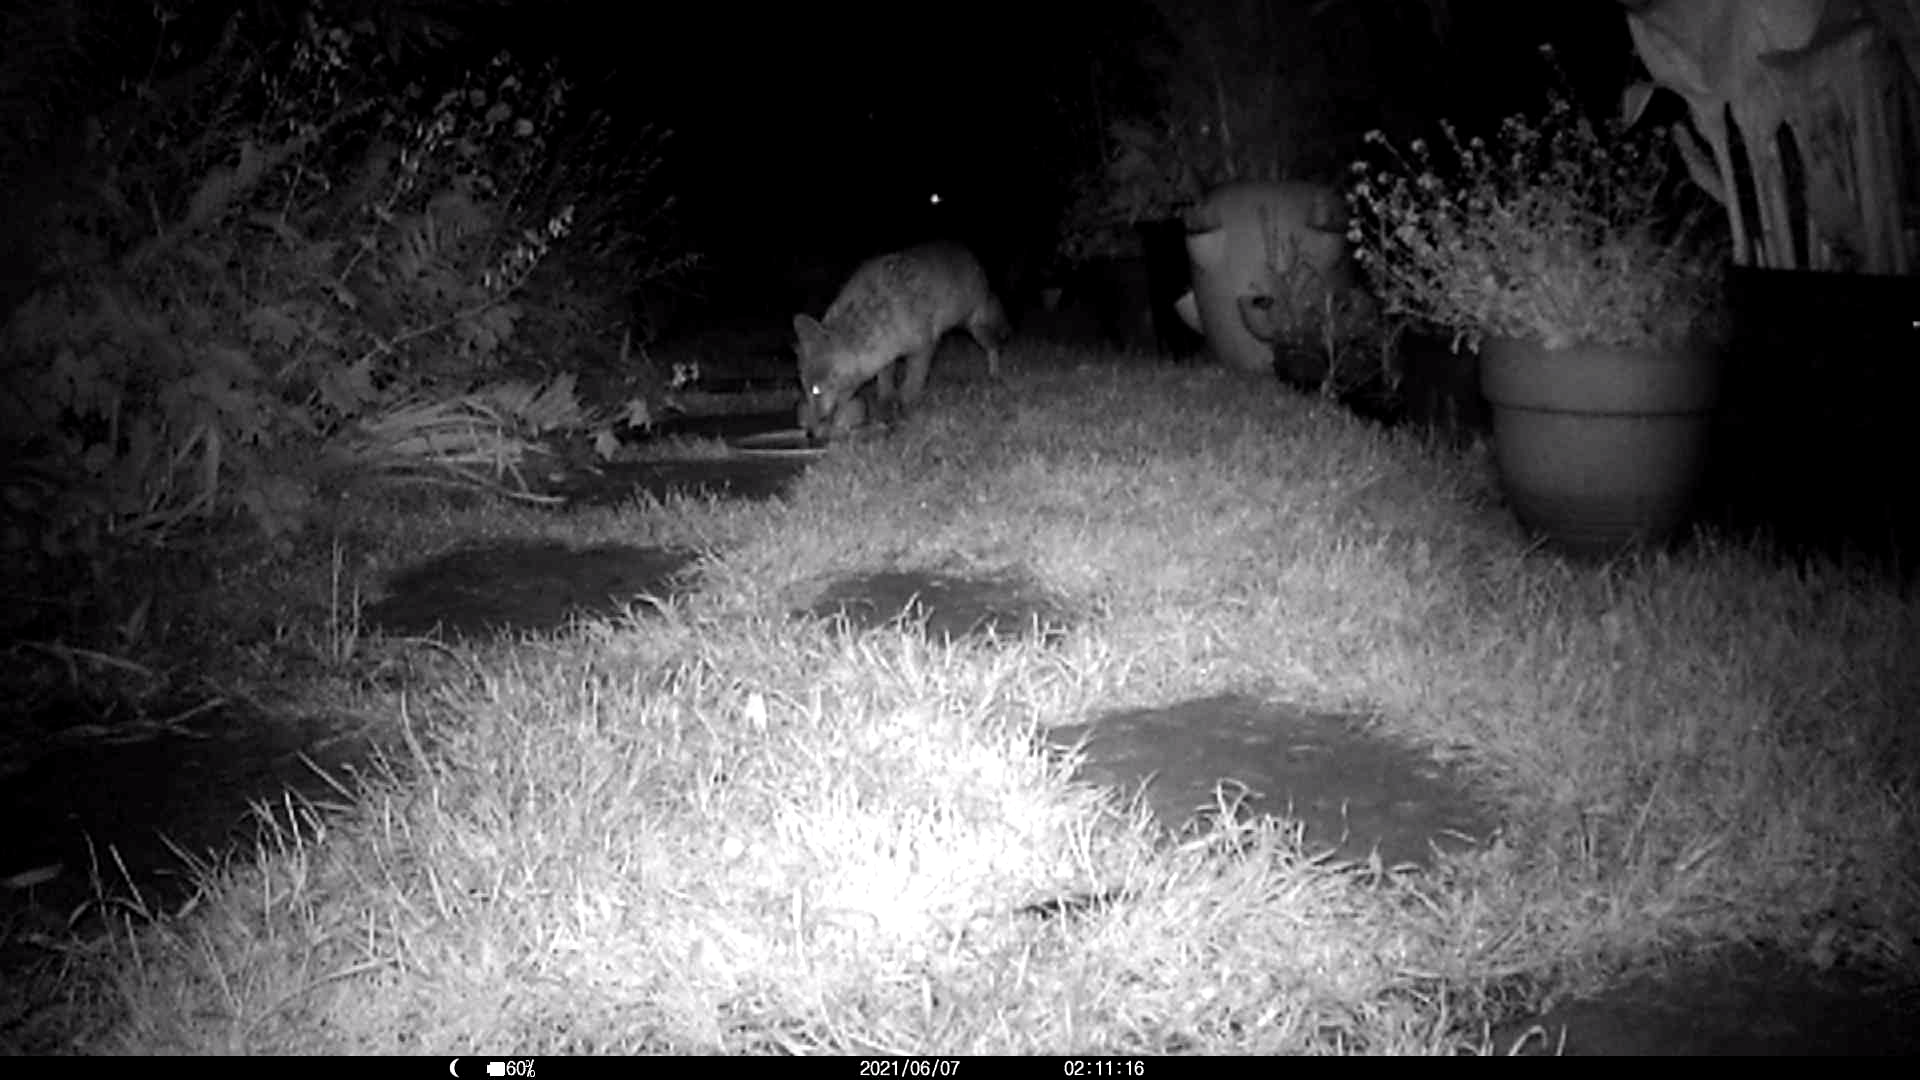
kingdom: Animalia
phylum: Chordata
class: Mammalia
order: Carnivora
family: Canidae
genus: Vulpes
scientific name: Vulpes vulpes
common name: Red fox
